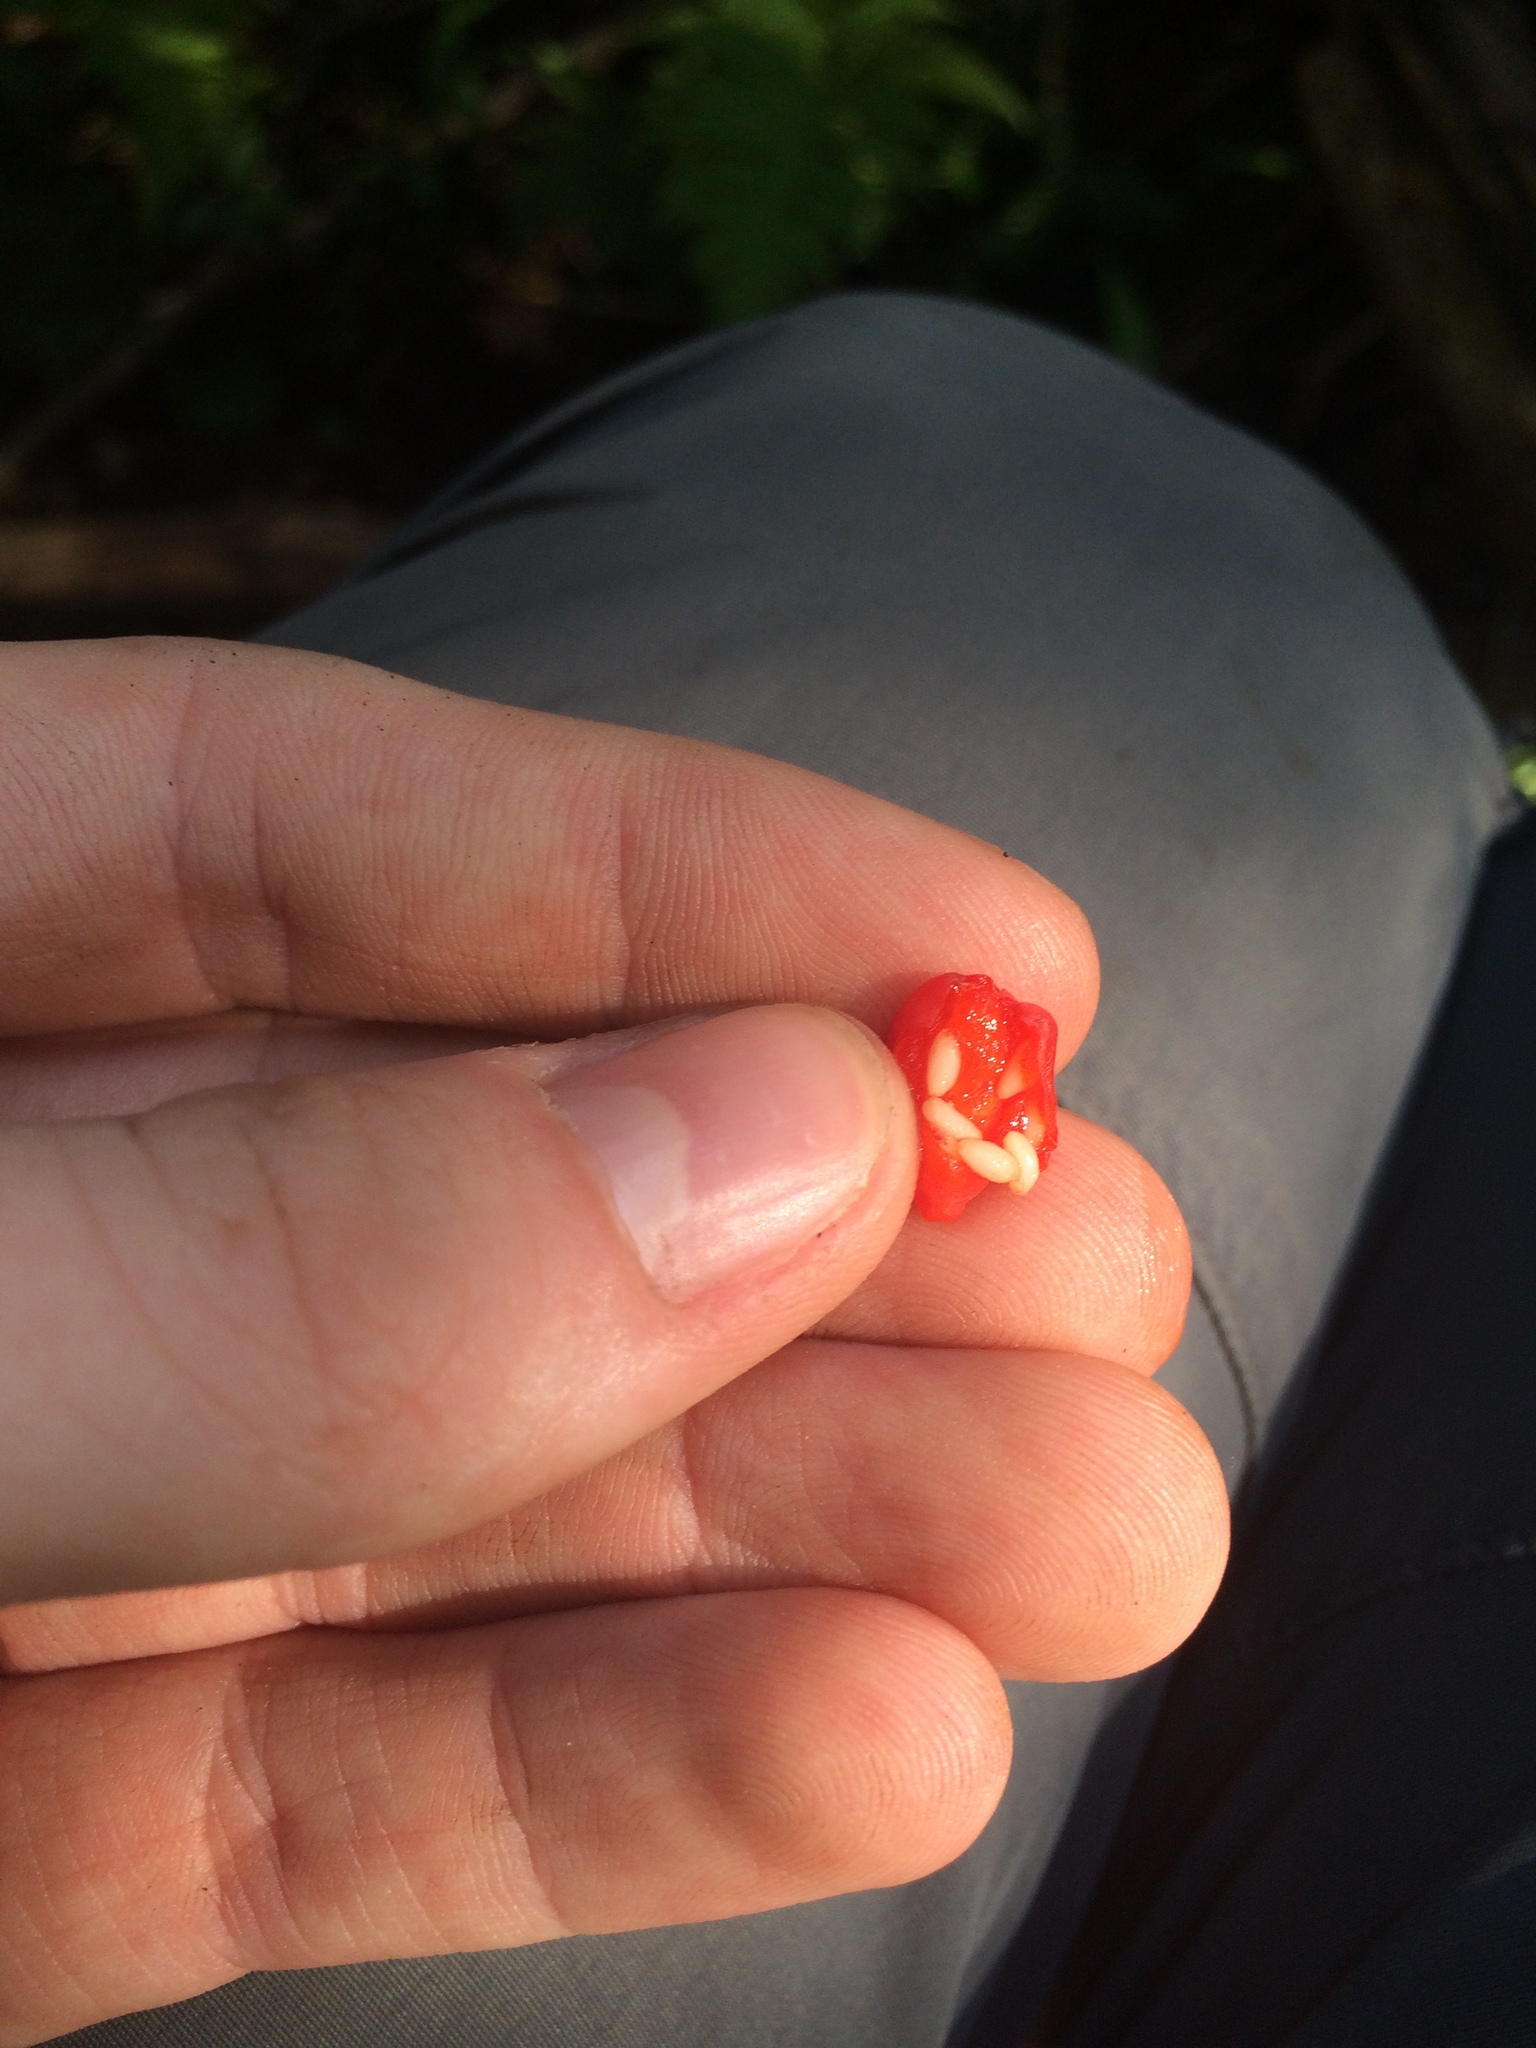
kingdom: Plantae
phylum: Tracheophyta
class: Liliopsida
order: Liliales
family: Liliaceae
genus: Streptopus
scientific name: Streptopus amplexifolius
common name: Clasp twisted stalk
